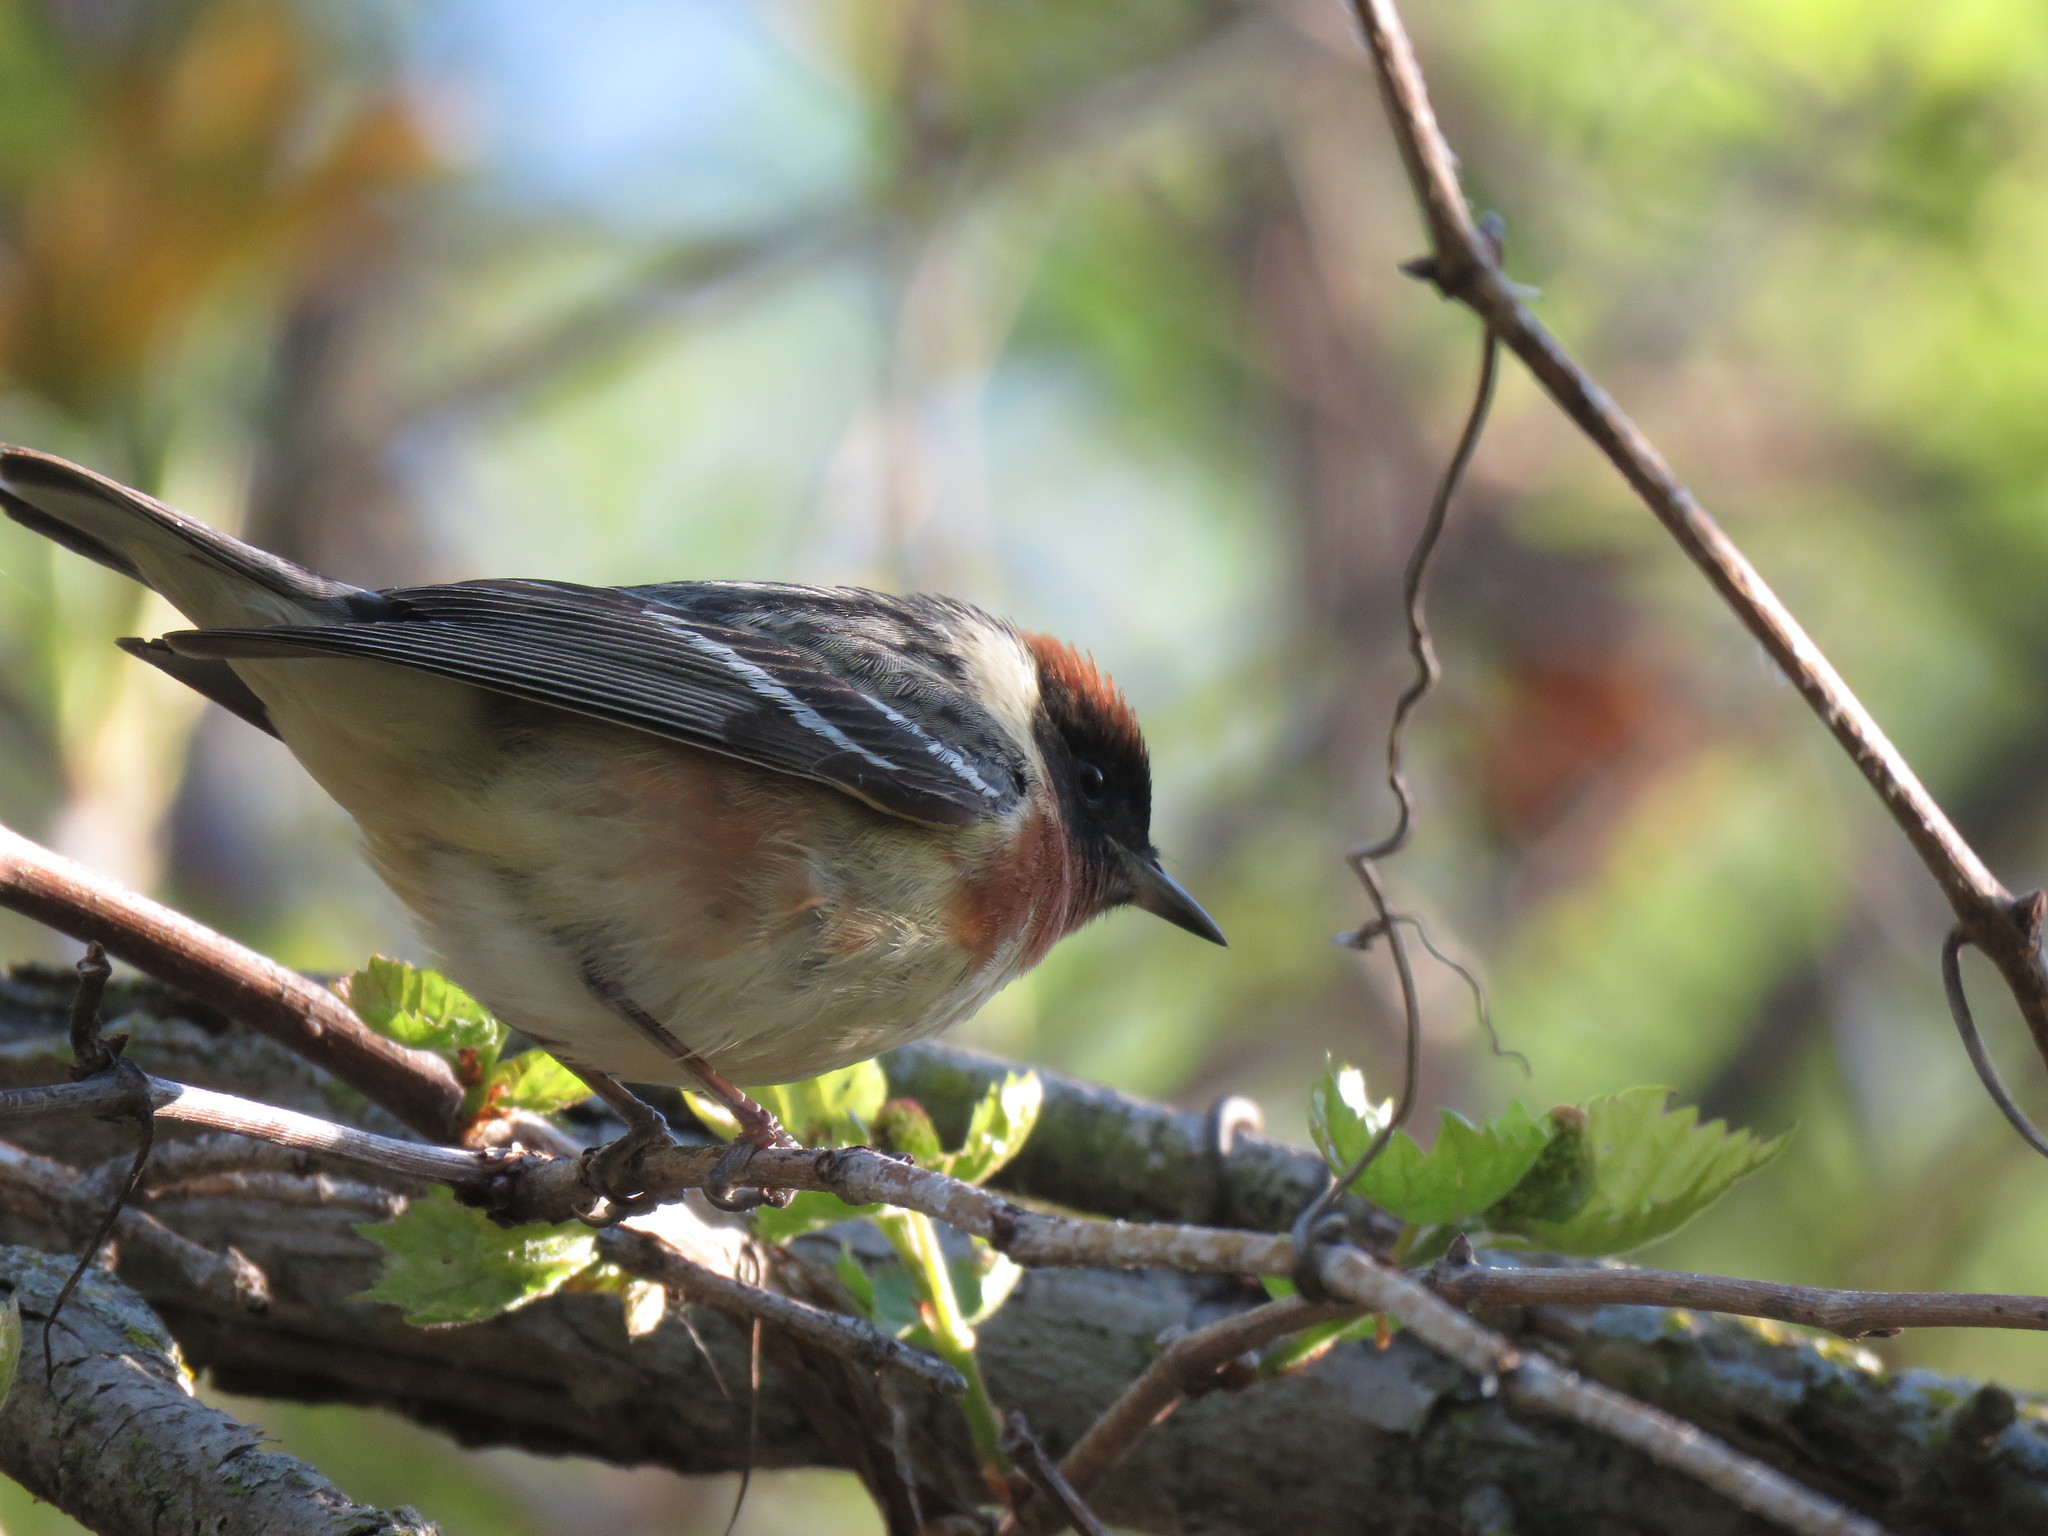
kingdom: Animalia
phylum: Chordata
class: Aves
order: Passeriformes
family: Parulidae
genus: Setophaga
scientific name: Setophaga castanea
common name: Bay-breasted warbler
